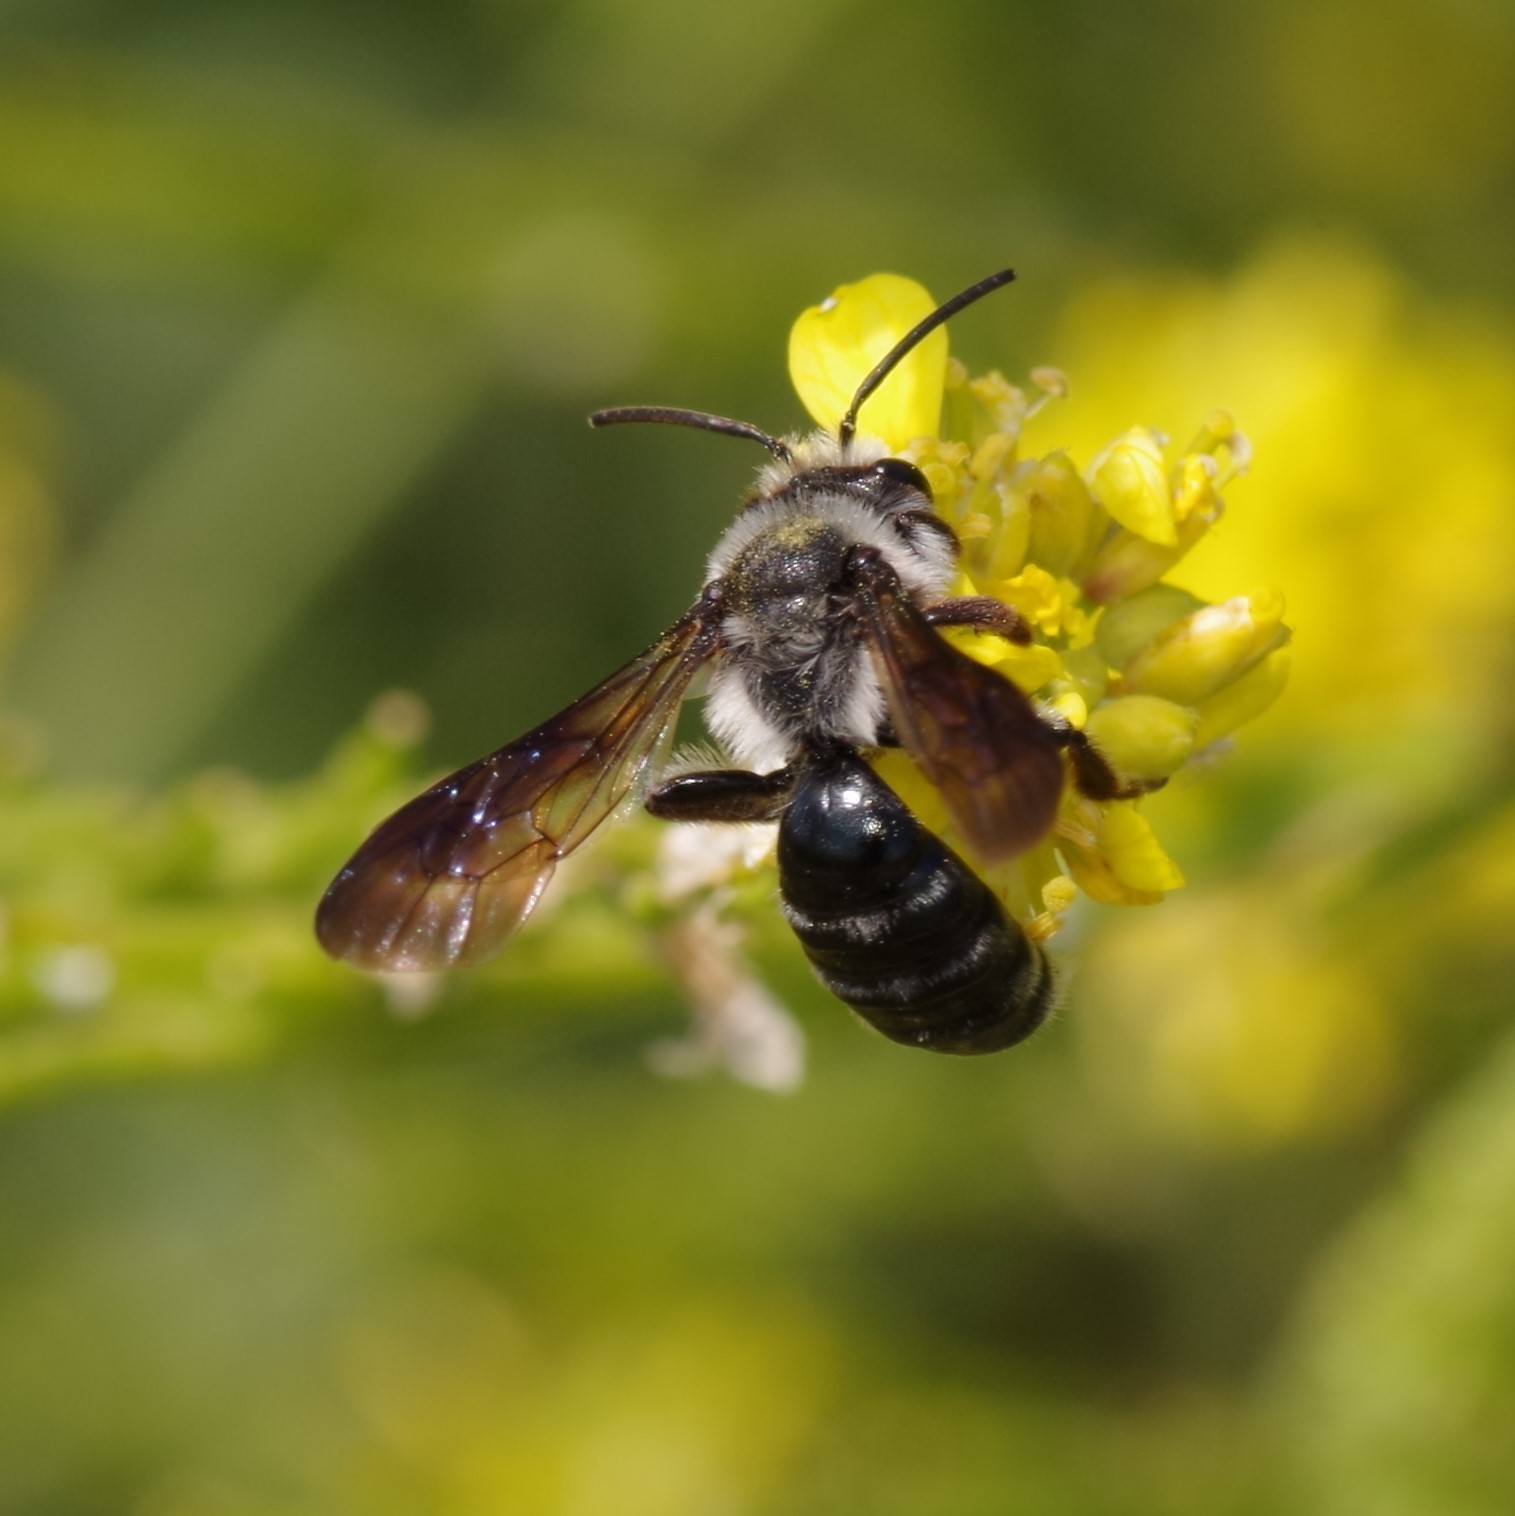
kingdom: Animalia
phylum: Arthropoda
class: Insecta
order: Hymenoptera
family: Andrenidae
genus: Andrena
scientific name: Andrena agilissima
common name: Violet-winged mining bee
